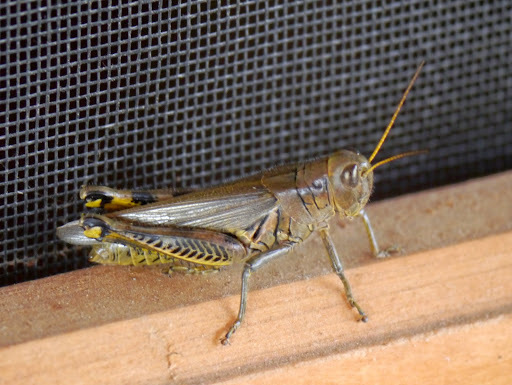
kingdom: Animalia
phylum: Arthropoda
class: Insecta
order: Orthoptera
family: Acrididae
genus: Melanoplus
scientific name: Melanoplus differentialis
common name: Differential grasshopper
